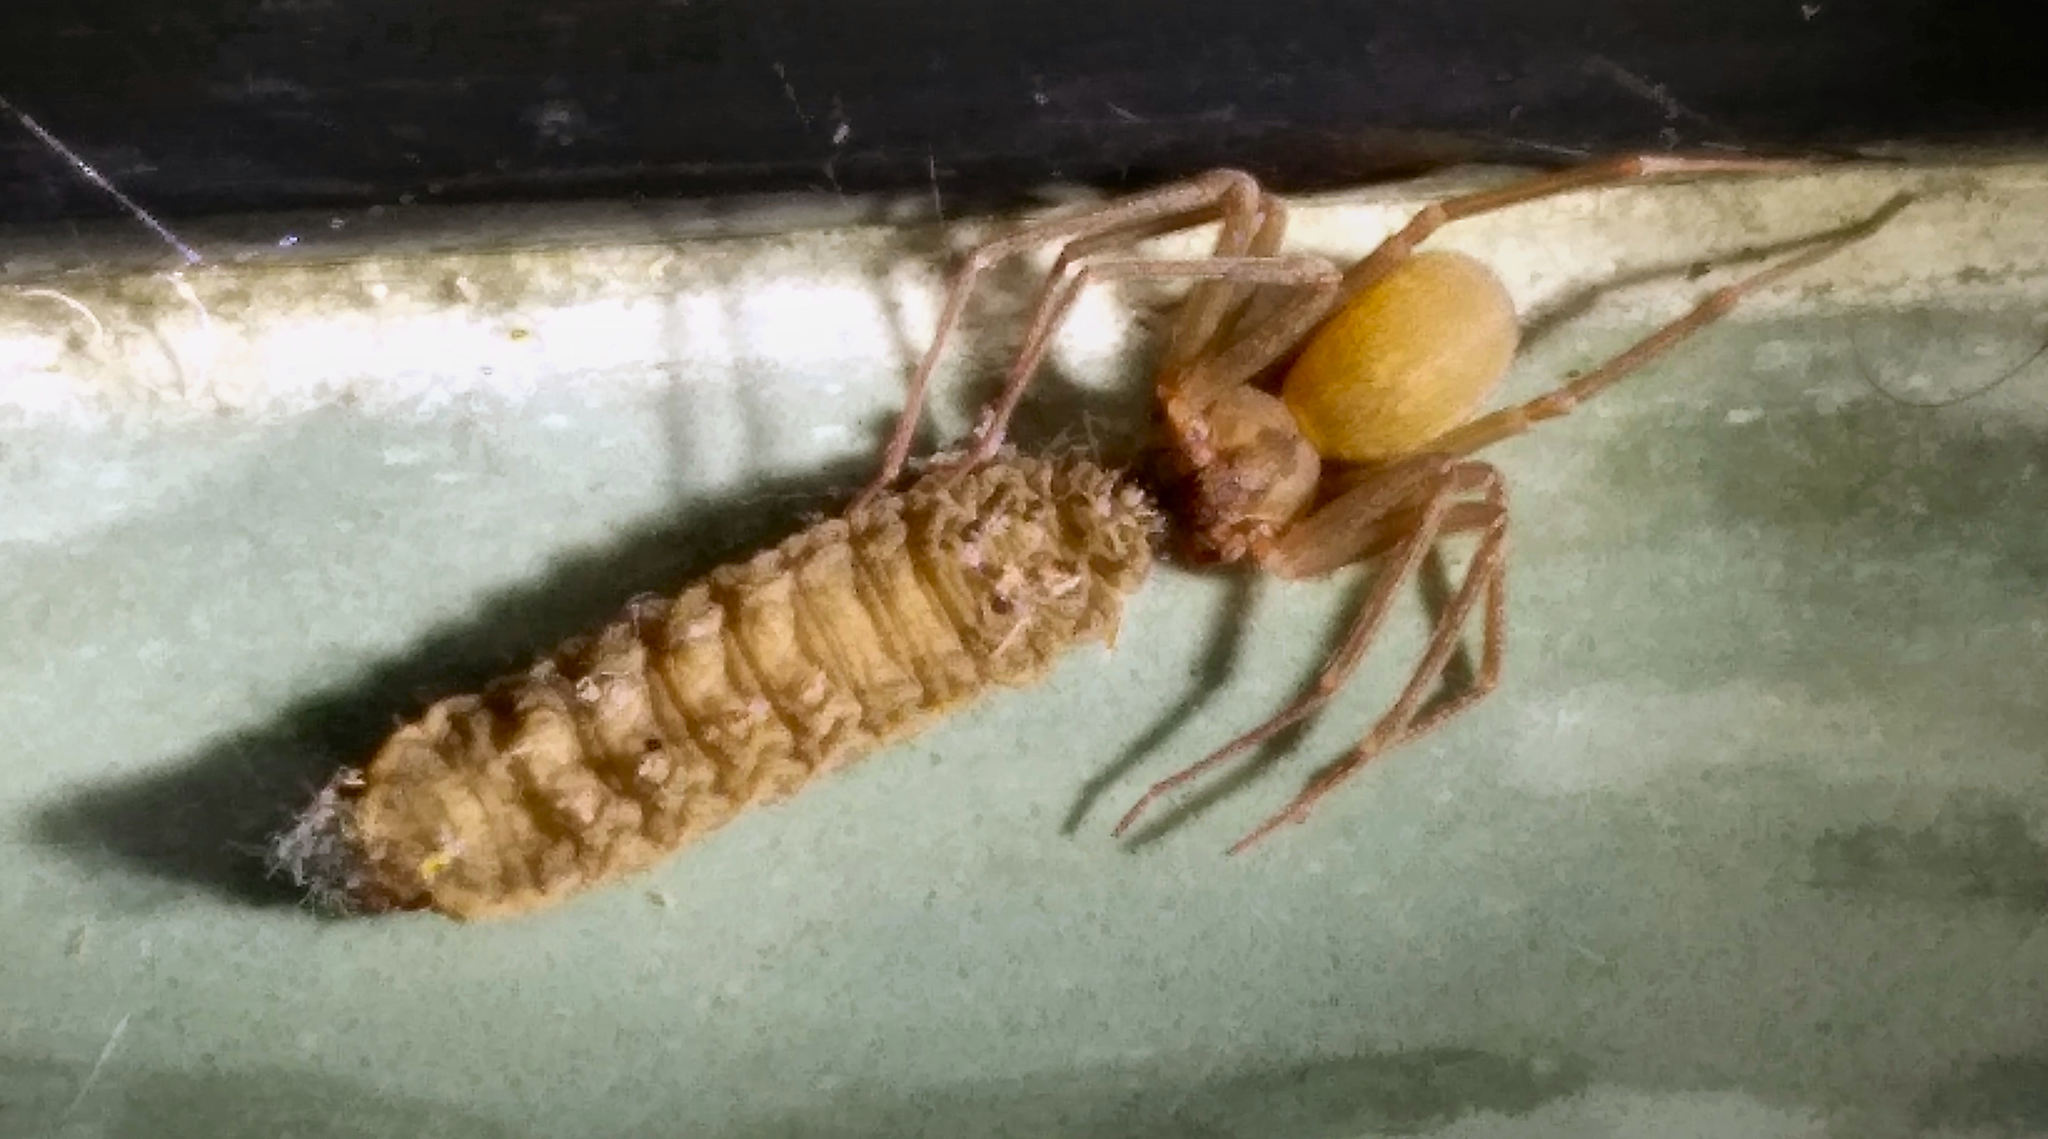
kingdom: Animalia
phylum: Arthropoda
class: Arachnida
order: Araneae
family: Sicariidae
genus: Loxosceles
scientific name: Loxosceles reclusa
